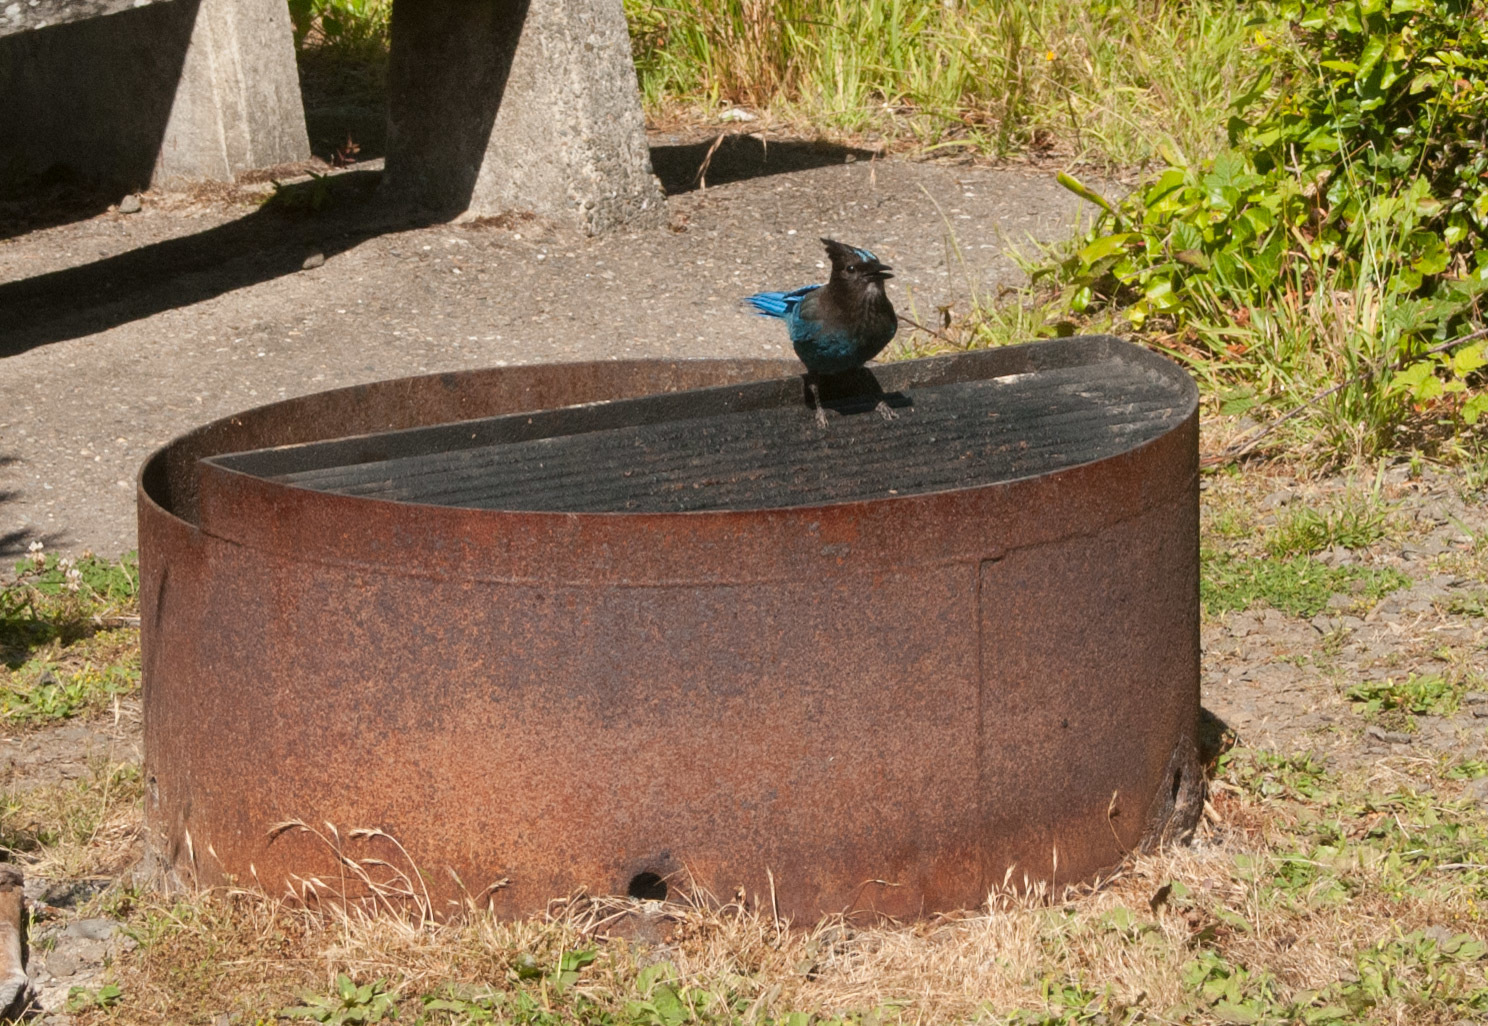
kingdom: Animalia
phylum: Chordata
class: Aves
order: Passeriformes
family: Corvidae
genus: Cyanocitta
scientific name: Cyanocitta stelleri
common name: Steller's jay
